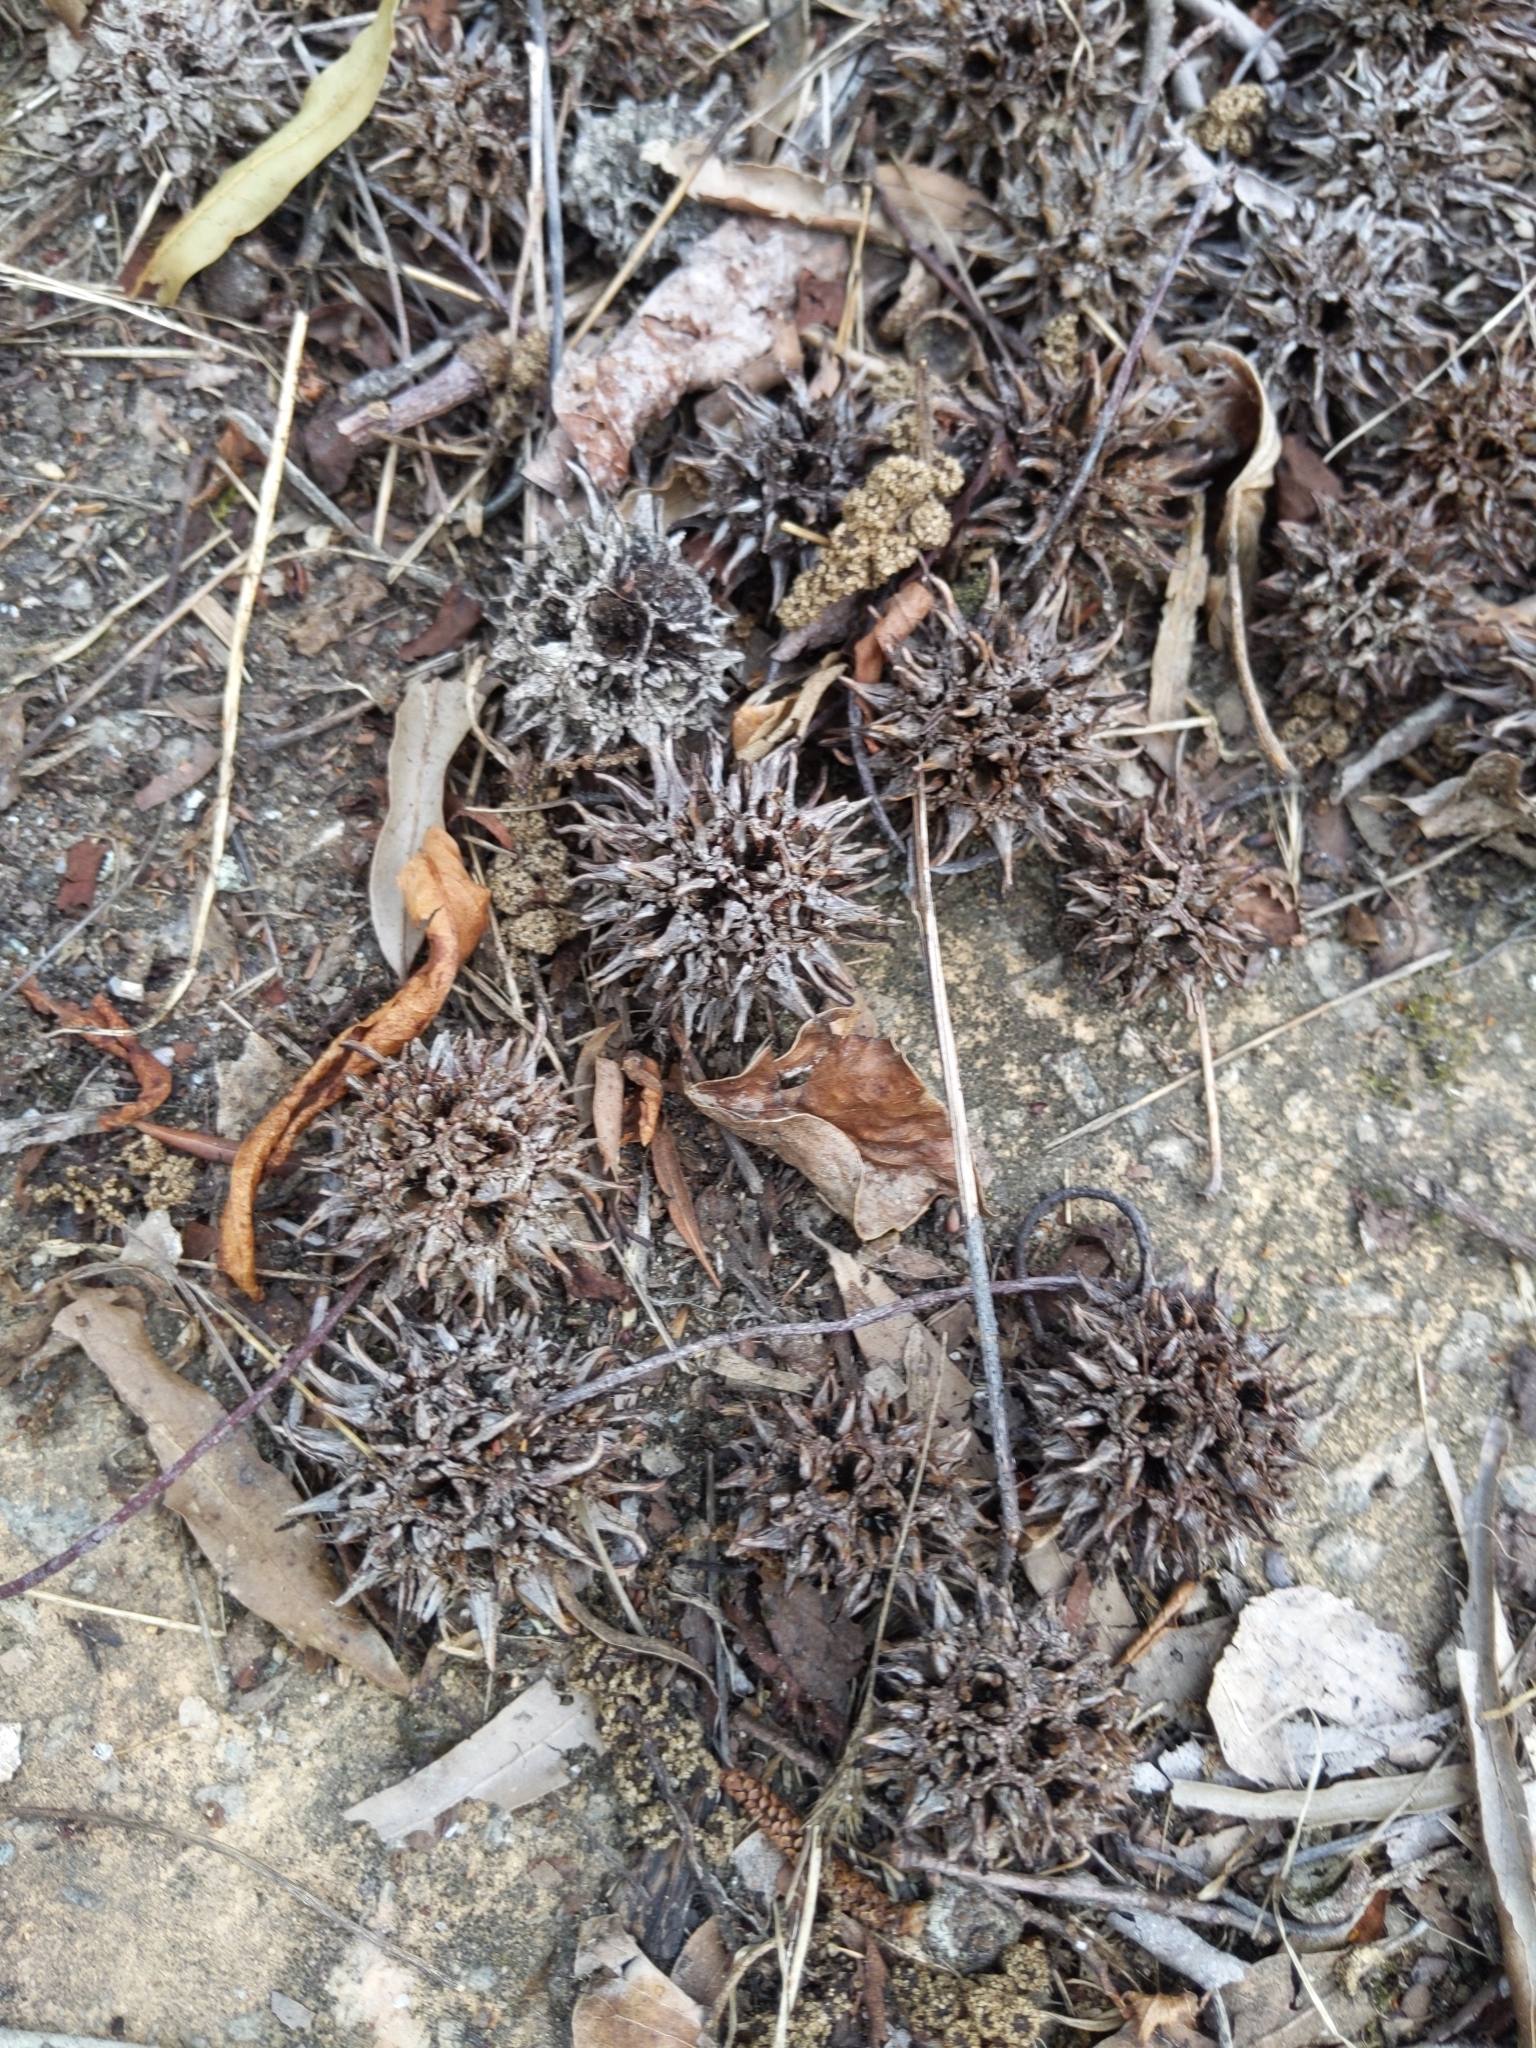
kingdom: Plantae
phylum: Tracheophyta
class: Magnoliopsida
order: Saxifragales
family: Altingiaceae
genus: Liquidambar
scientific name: Liquidambar styraciflua
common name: Sweet gum
